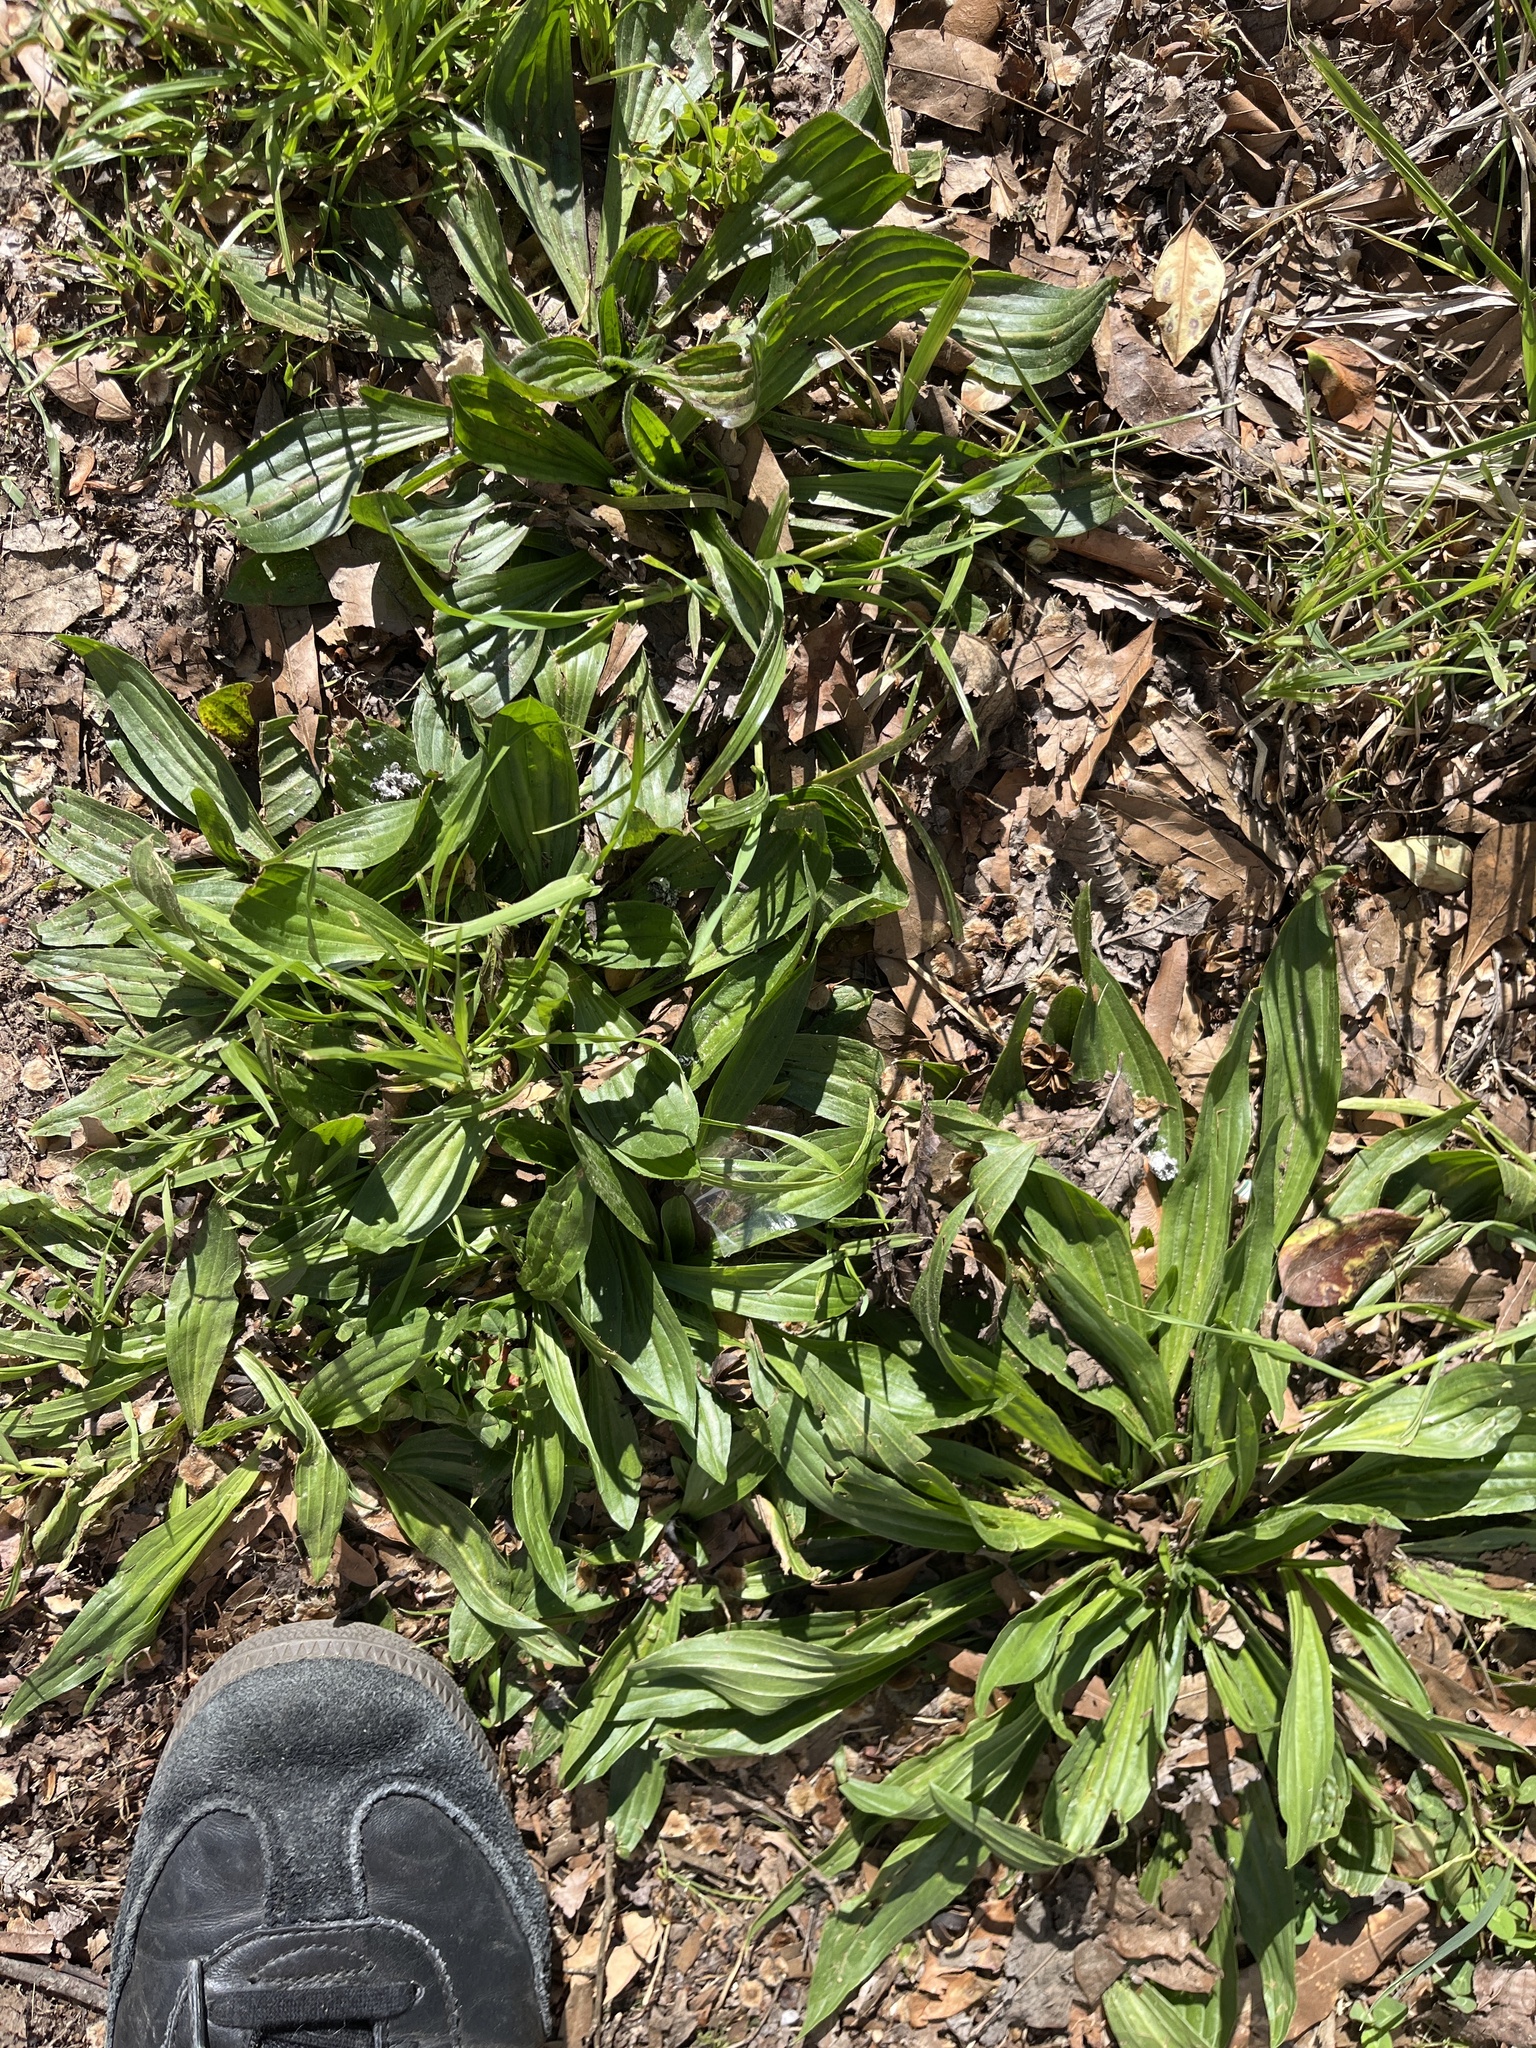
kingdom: Plantae
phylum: Tracheophyta
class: Magnoliopsida
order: Lamiales
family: Plantaginaceae
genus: Plantago
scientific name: Plantago major
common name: Common plantain
